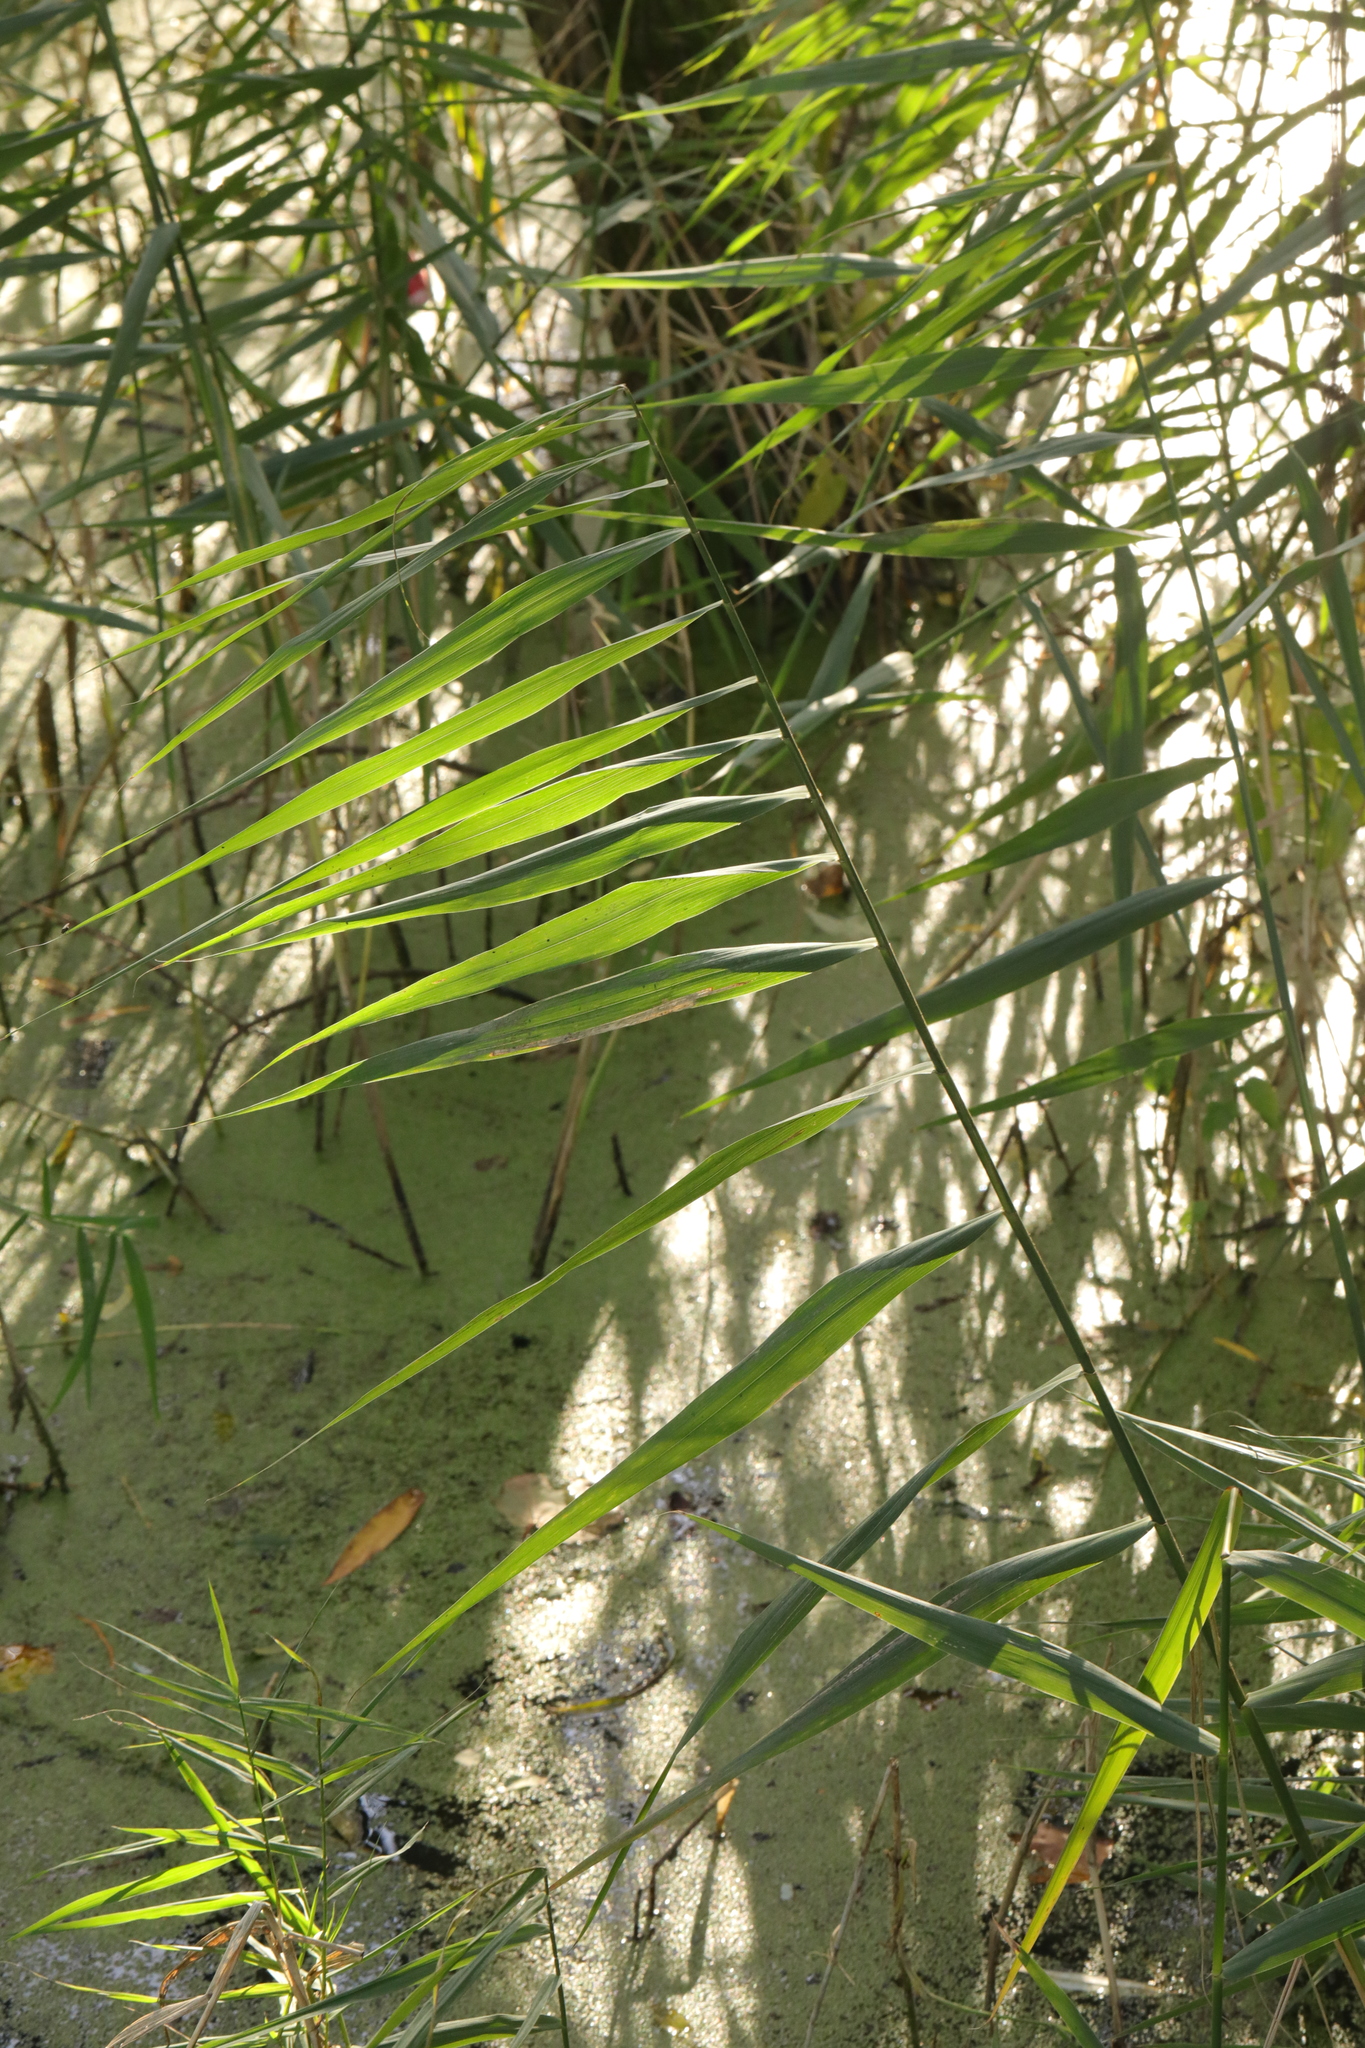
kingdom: Plantae
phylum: Tracheophyta
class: Liliopsida
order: Poales
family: Poaceae
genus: Phragmites
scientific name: Phragmites australis
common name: Common reed
